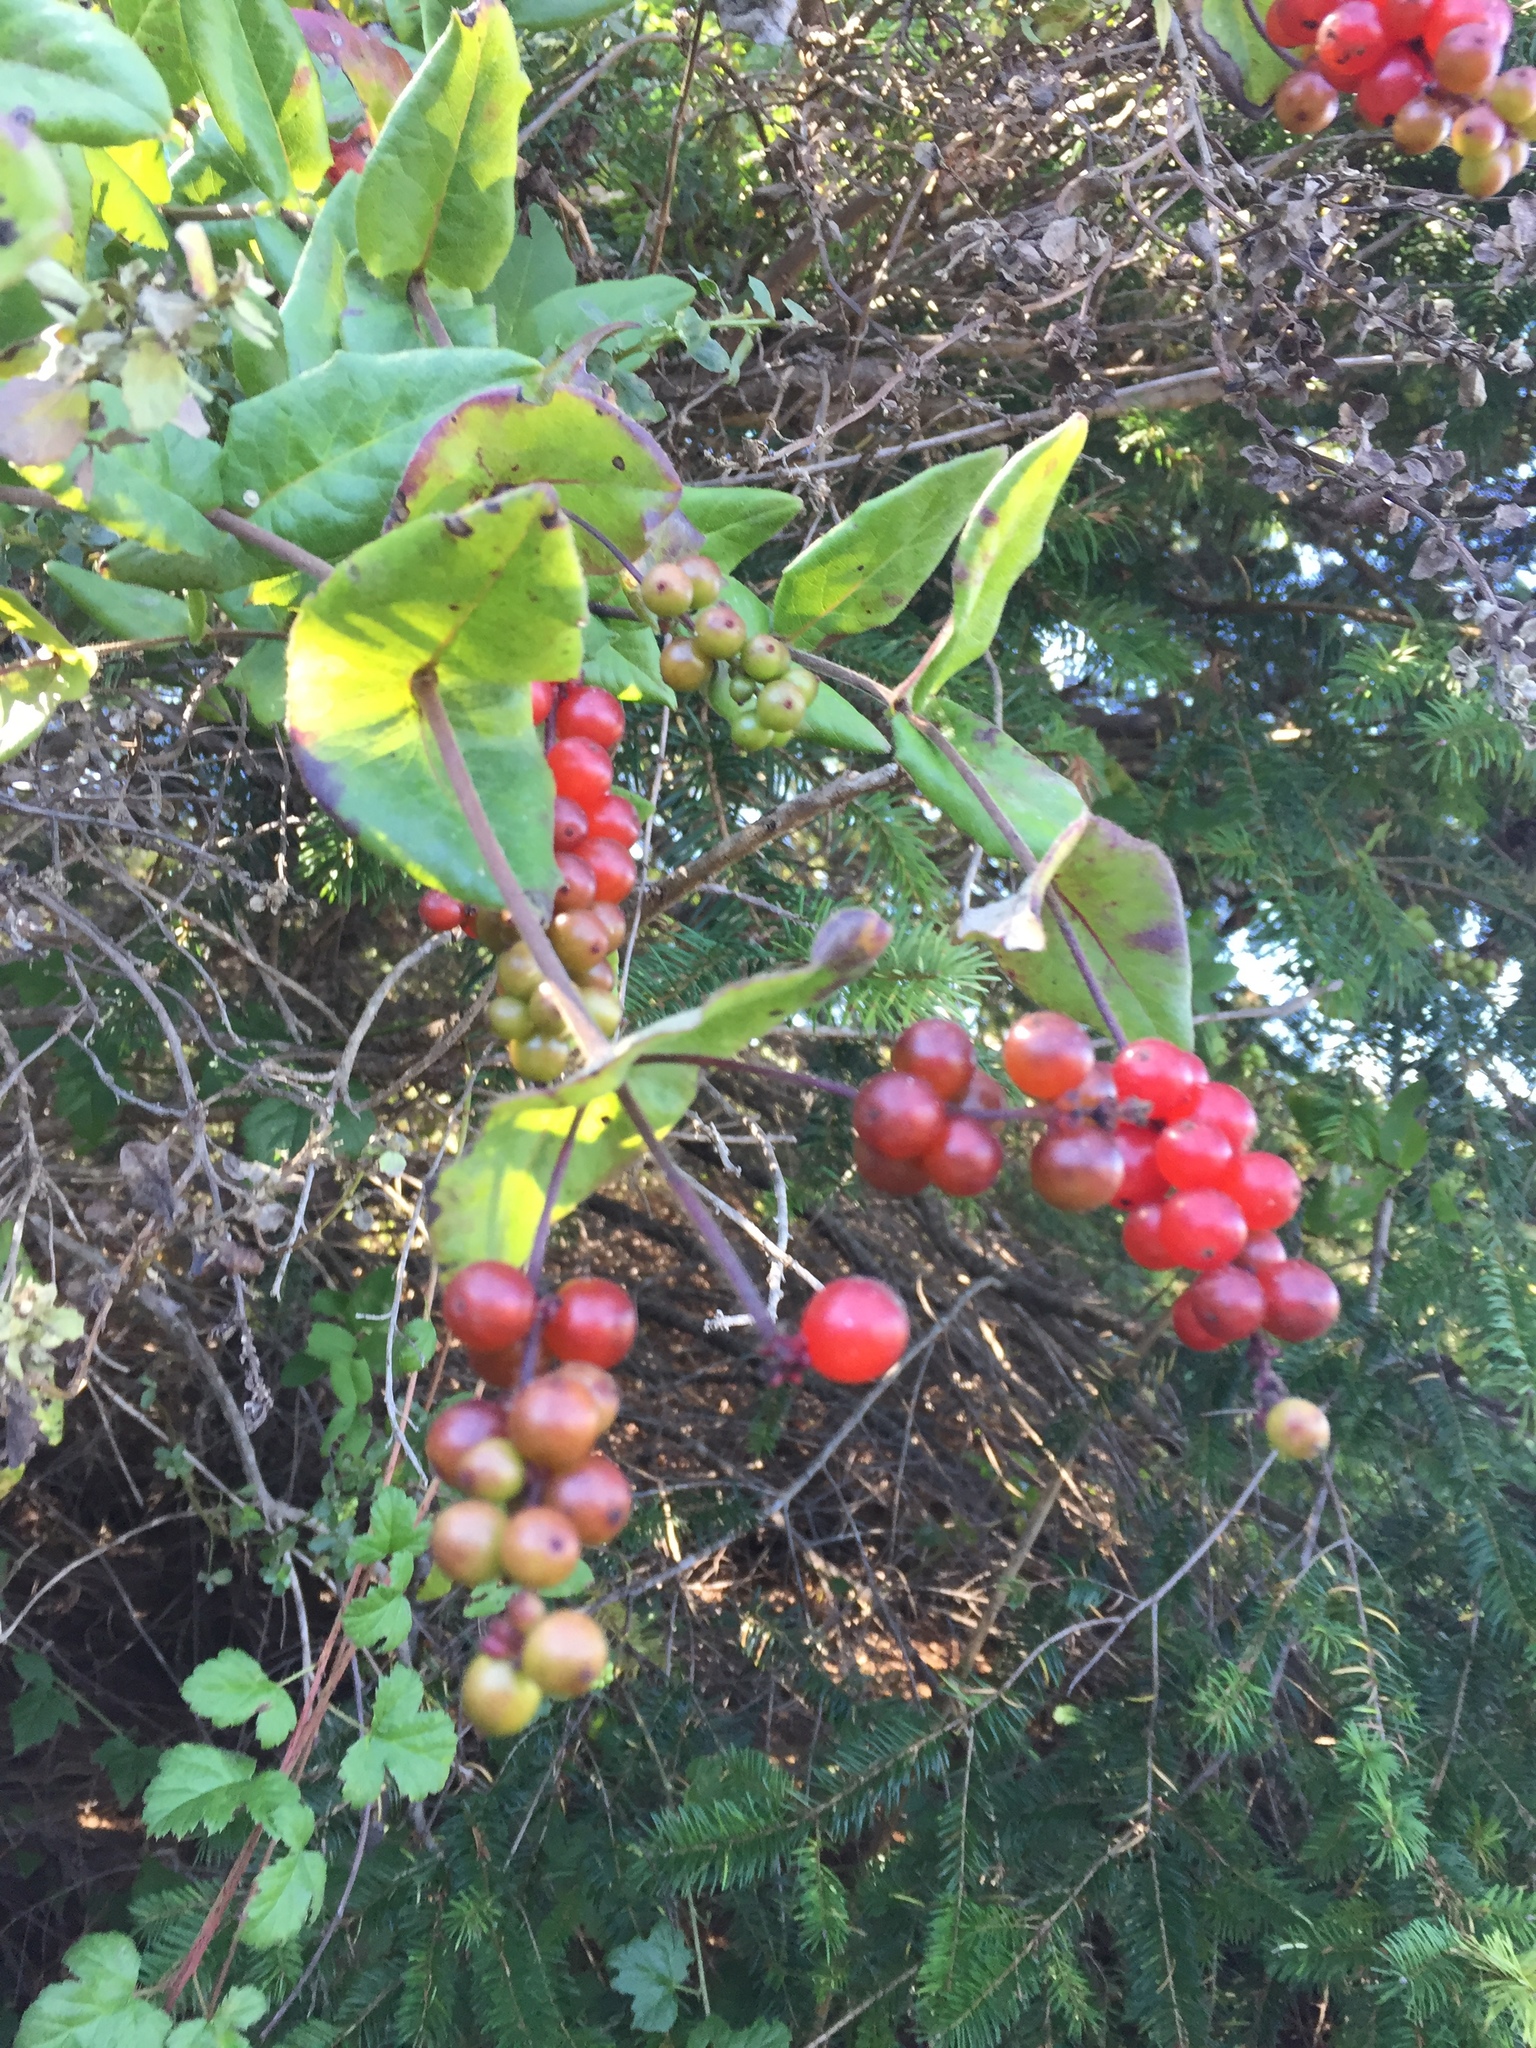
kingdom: Plantae
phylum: Tracheophyta
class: Magnoliopsida
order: Dipsacales
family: Caprifoliaceae
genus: Lonicera
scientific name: Lonicera hispidula
